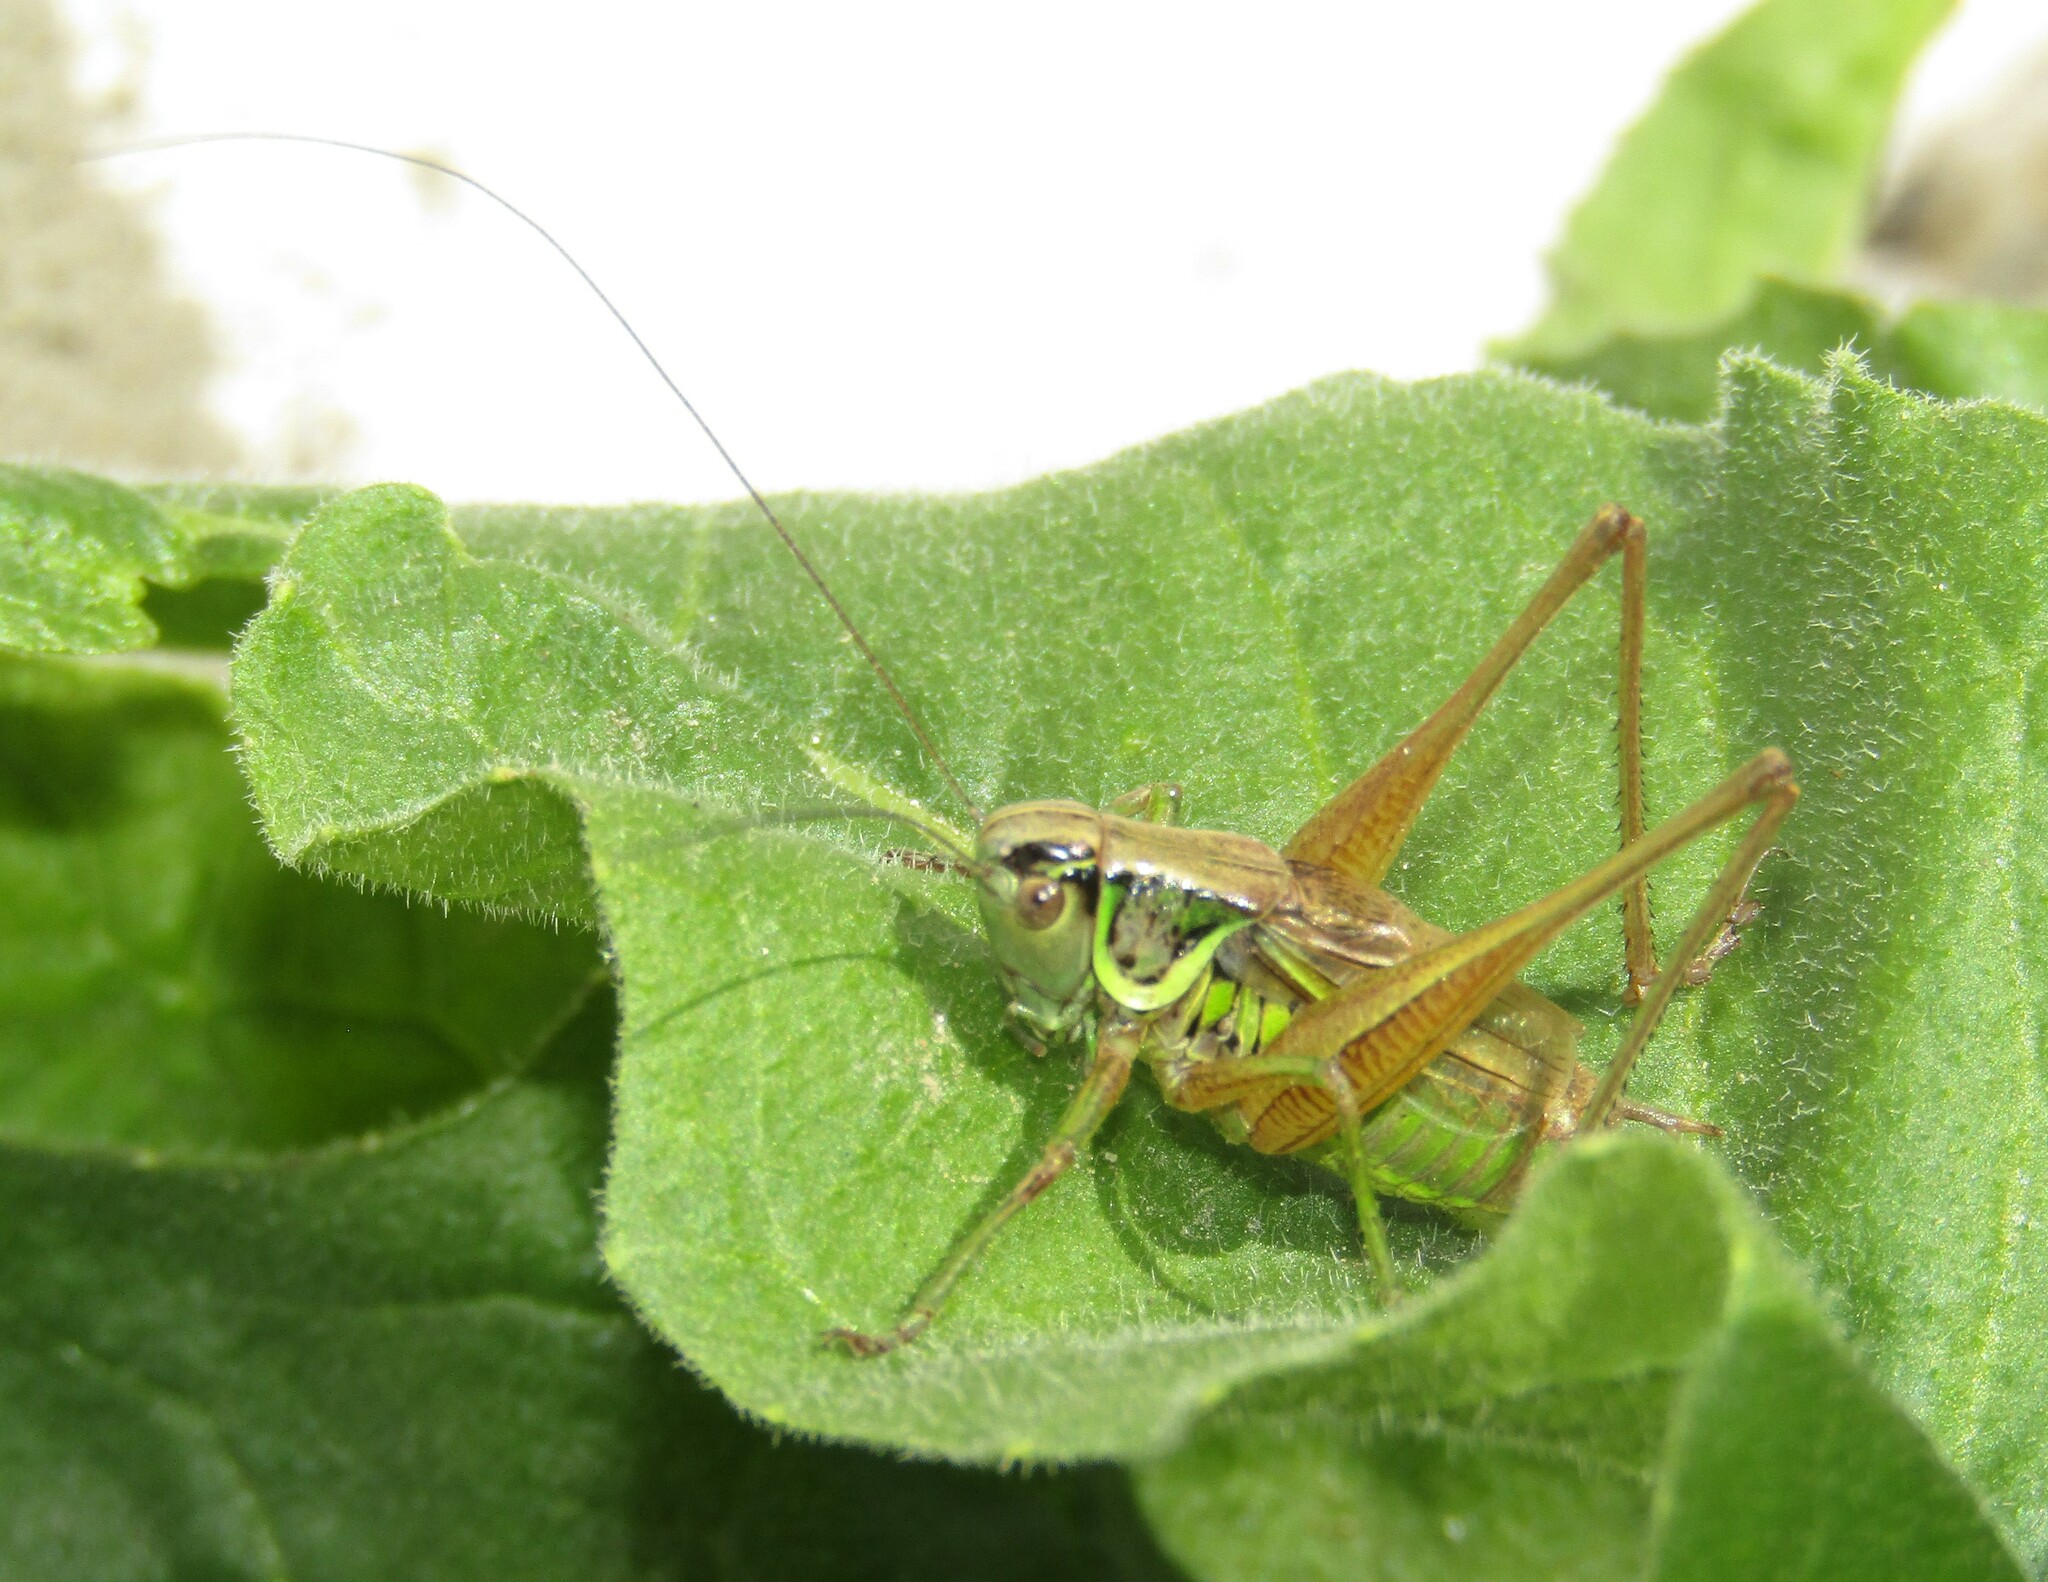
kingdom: Animalia
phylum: Arthropoda
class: Insecta
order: Orthoptera
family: Tettigoniidae
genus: Roeseliana
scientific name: Roeseliana roeselii
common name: Roesel's bush cricket
